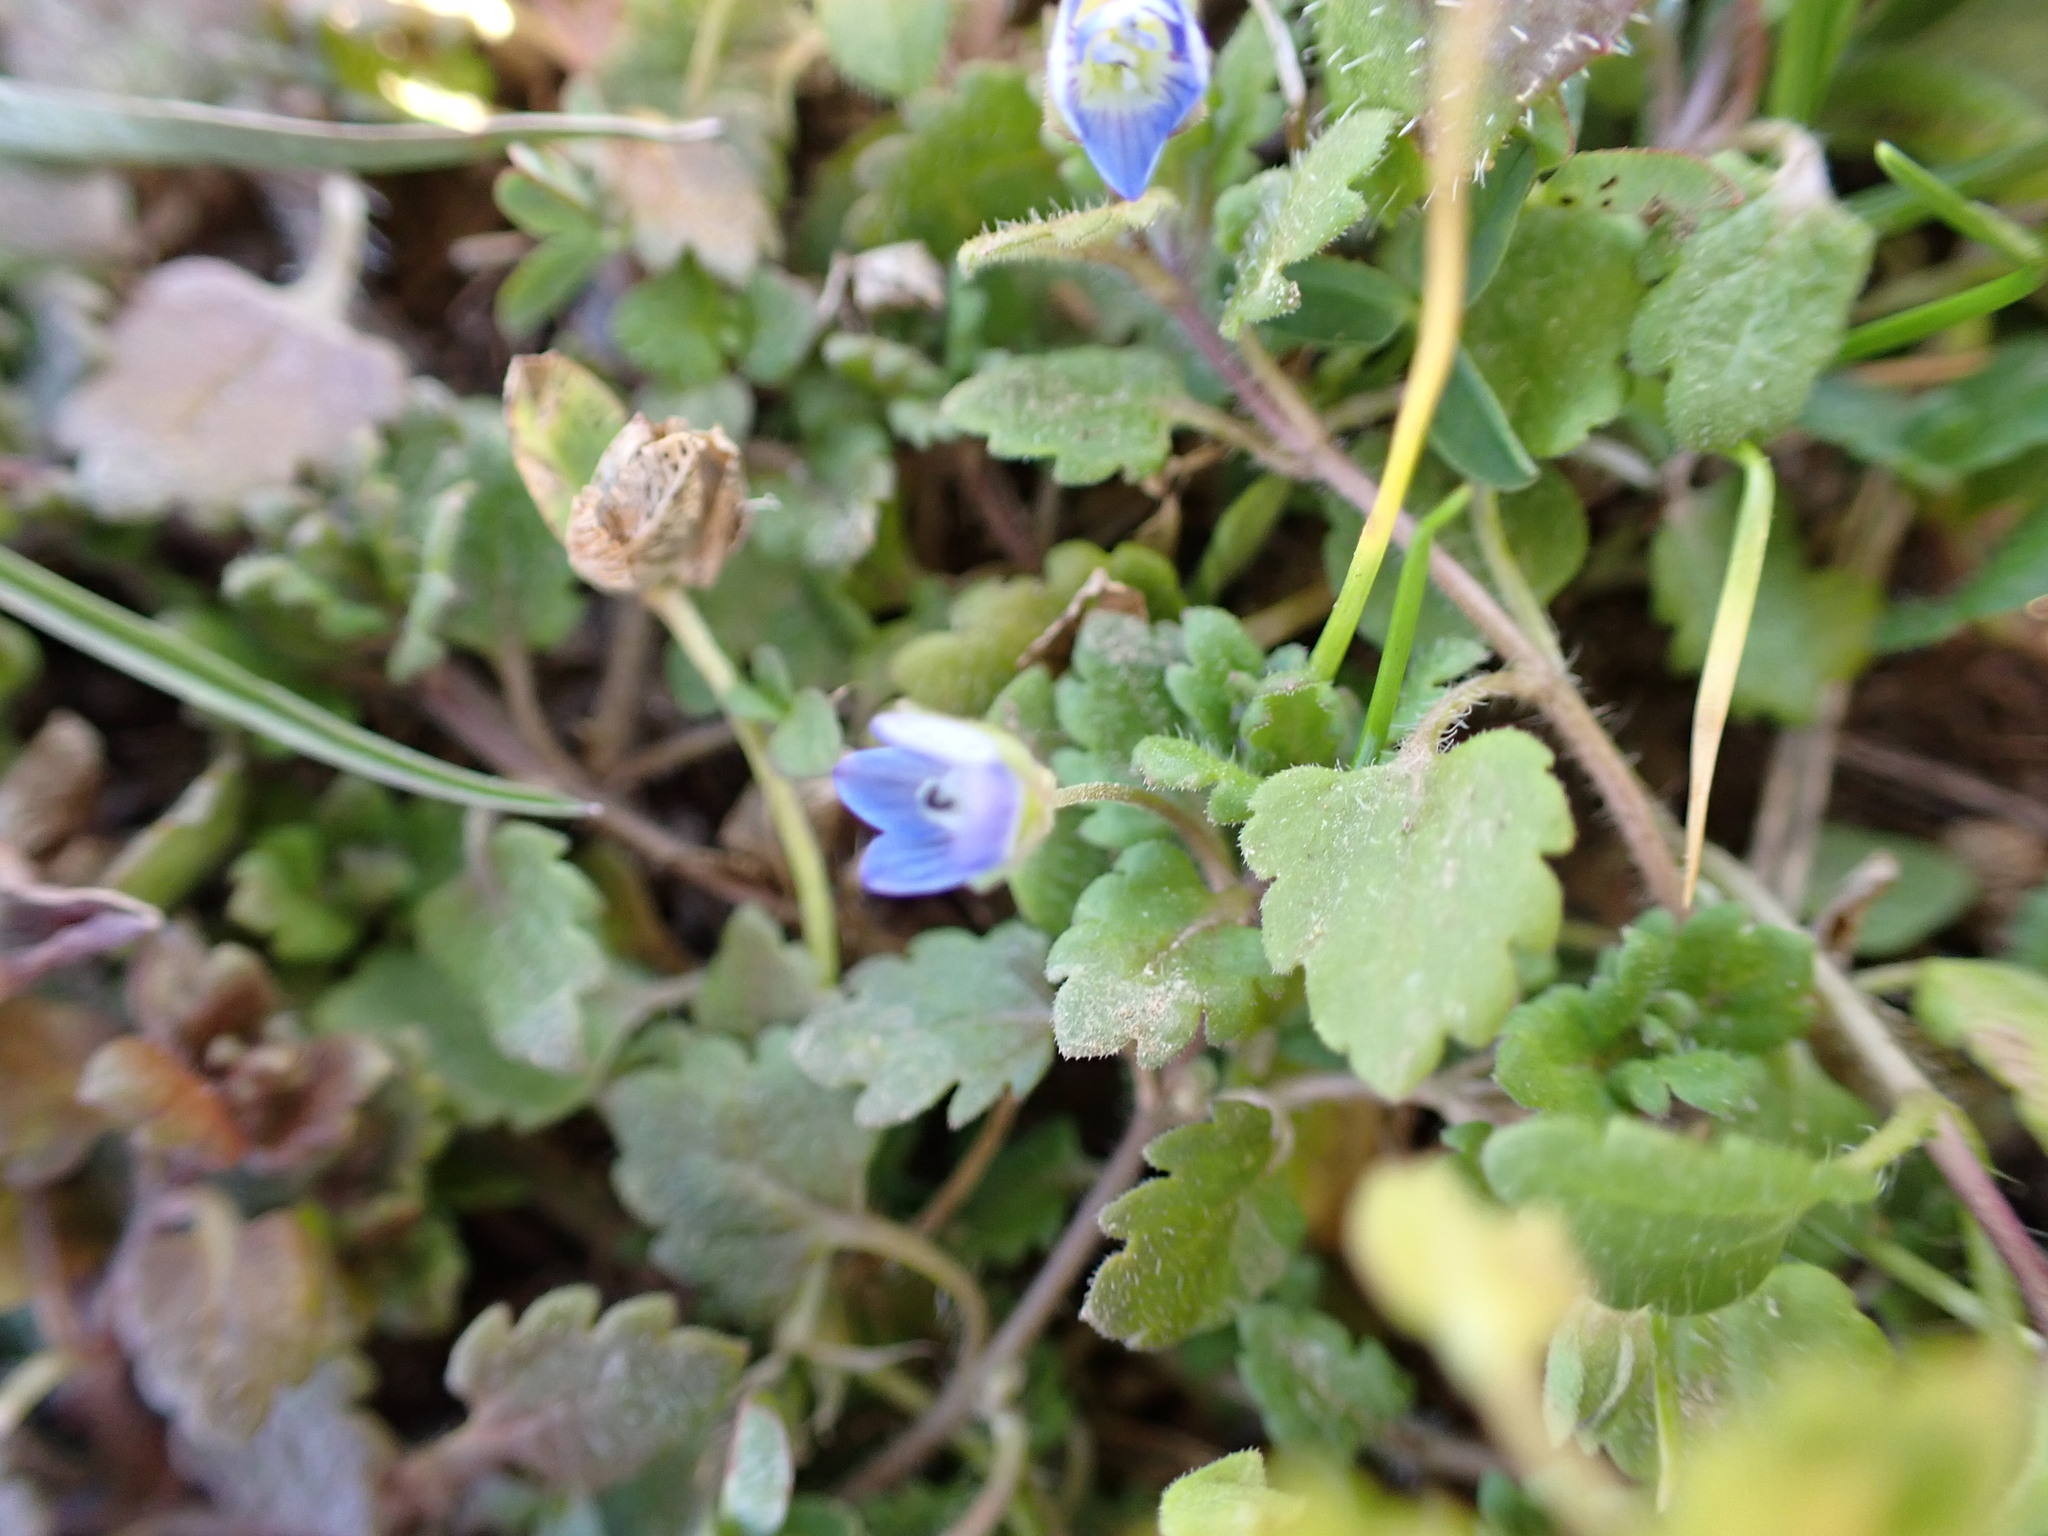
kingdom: Plantae
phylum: Tracheophyta
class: Magnoliopsida
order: Lamiales
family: Plantaginaceae
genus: Veronica
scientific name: Veronica persica
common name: Common field-speedwell
